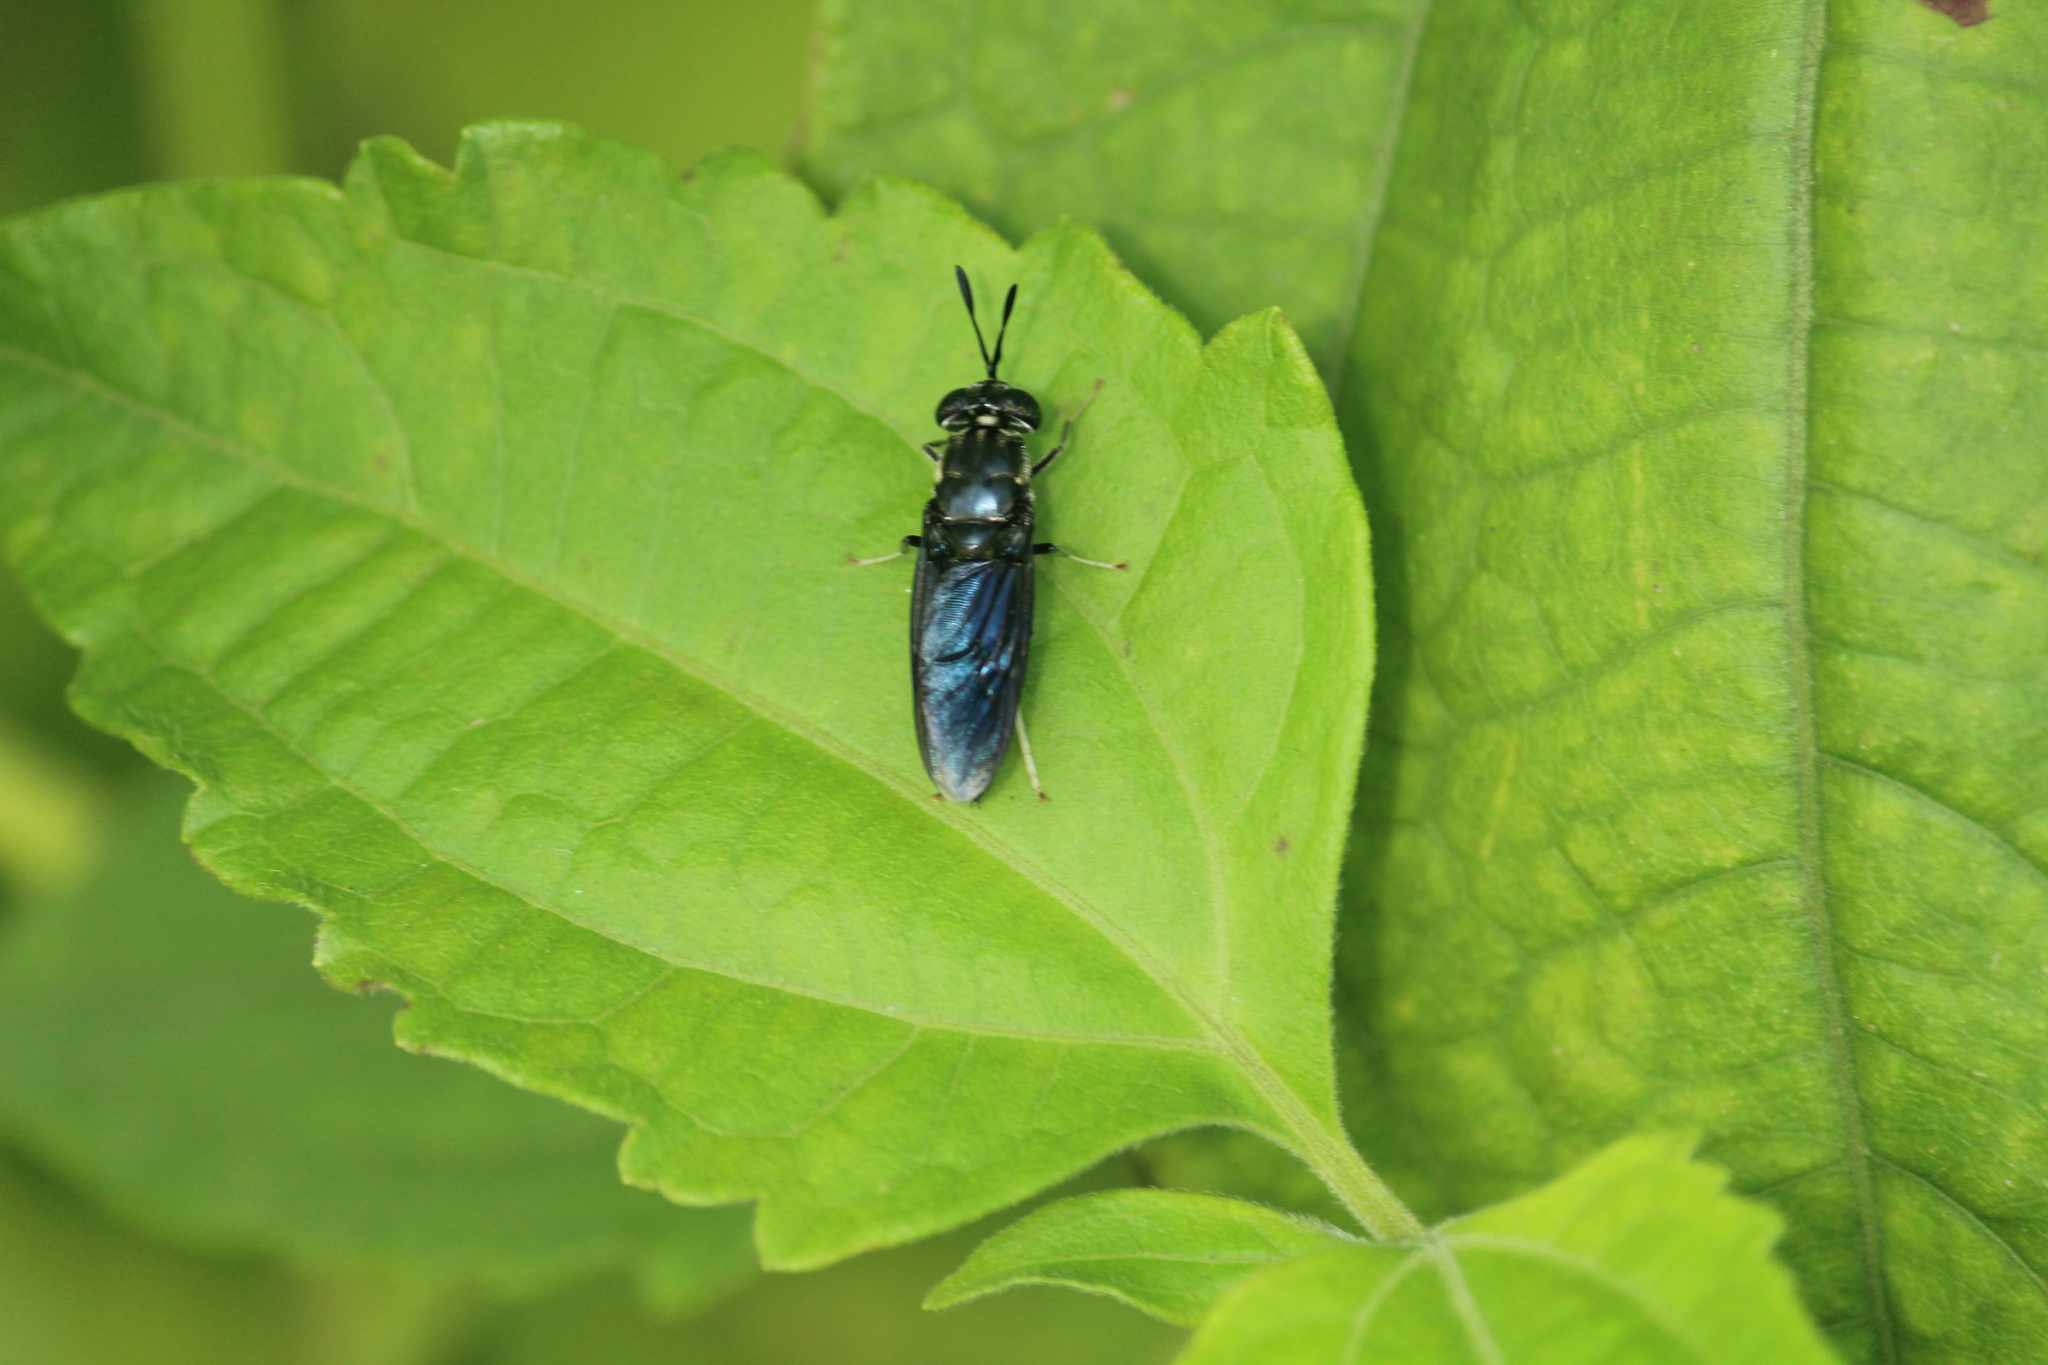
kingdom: Animalia
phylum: Arthropoda
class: Insecta
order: Diptera
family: Stratiomyidae
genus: Hermetia
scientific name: Hermetia illucens
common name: Black soldier fly
